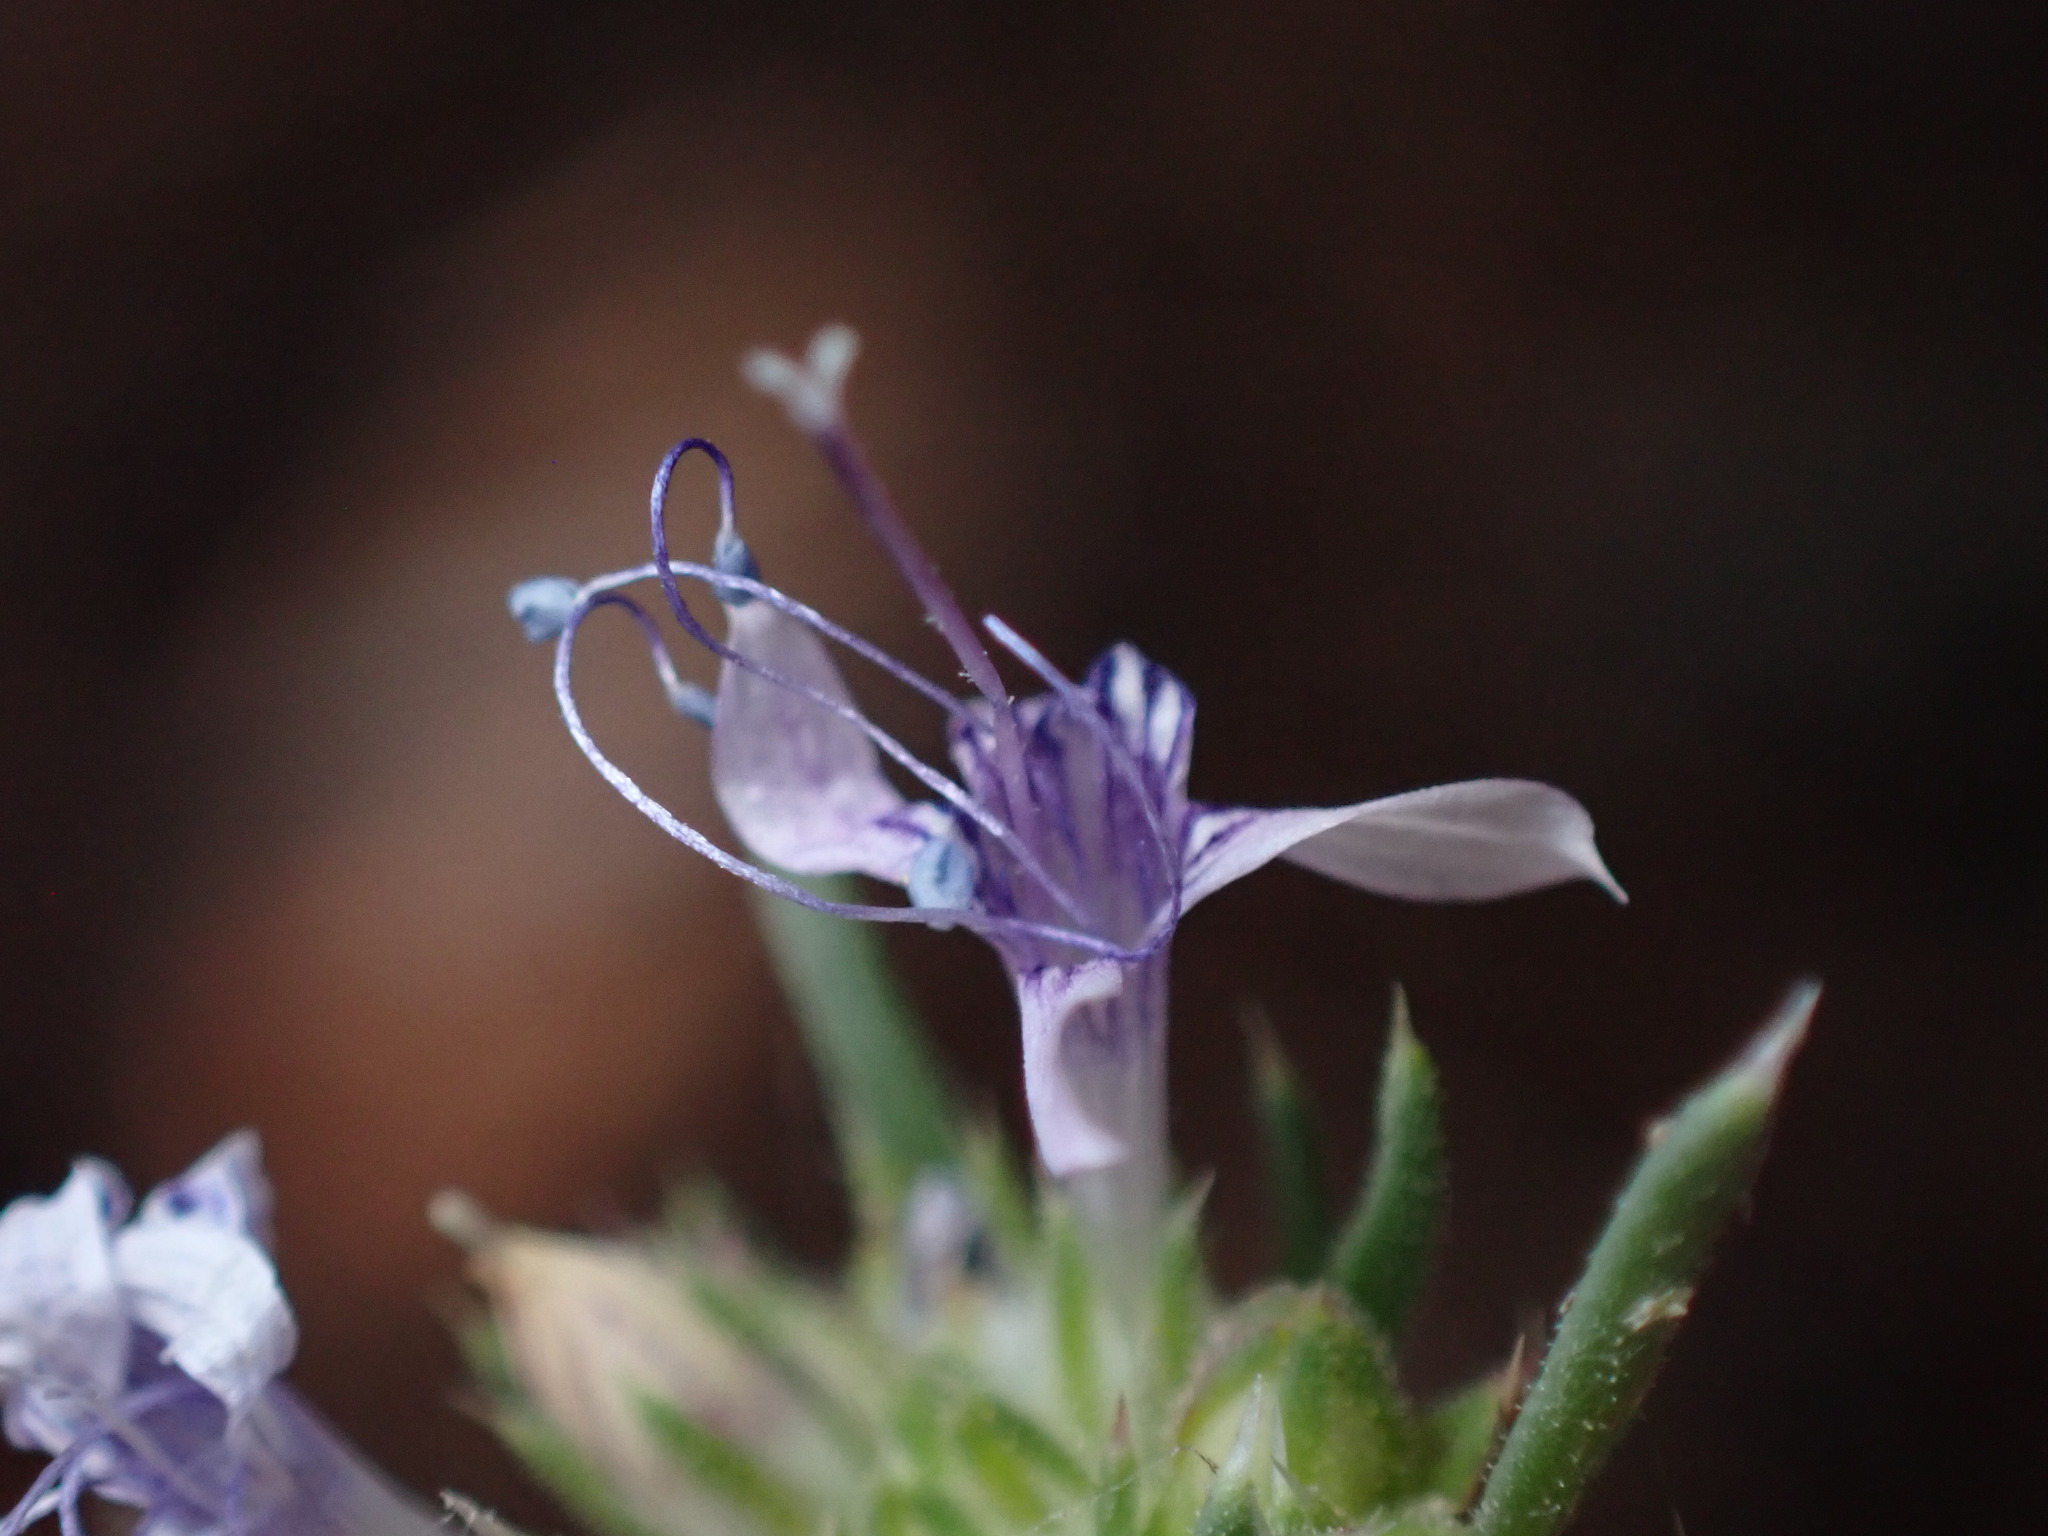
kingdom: Plantae
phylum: Tracheophyta
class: Magnoliopsida
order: Ericales
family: Polemoniaceae
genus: Ipomopsis
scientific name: Ipomopsis multiflora
